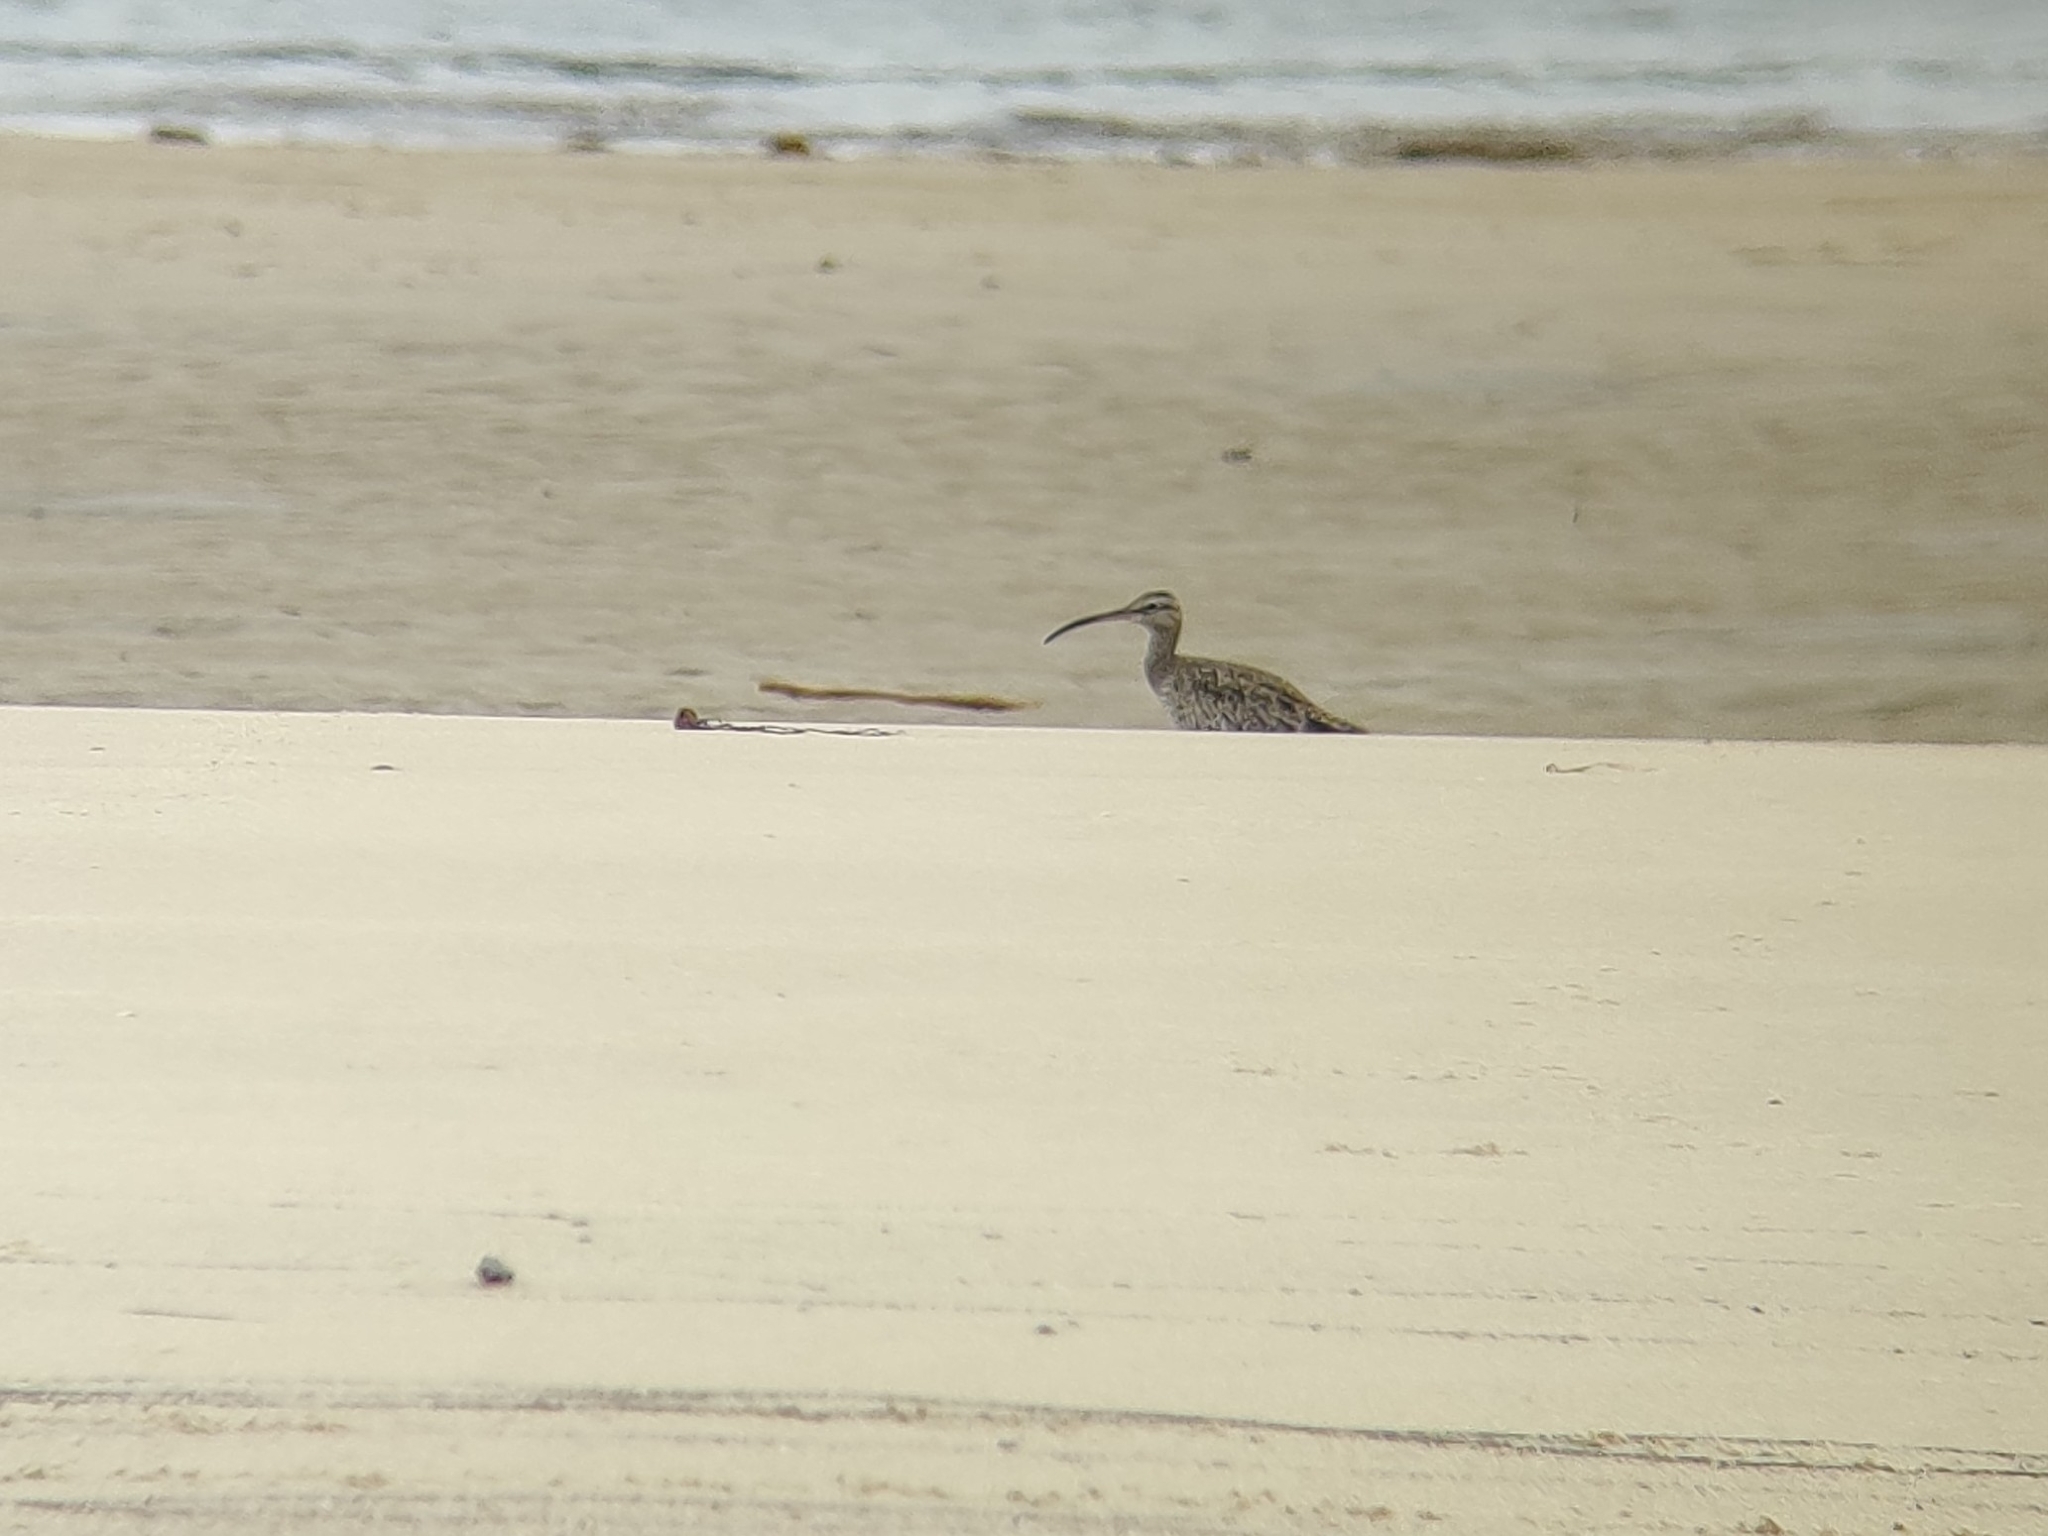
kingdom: Animalia
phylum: Chordata
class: Aves
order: Charadriiformes
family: Scolopacidae
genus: Numenius
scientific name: Numenius phaeopus
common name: Whimbrel
